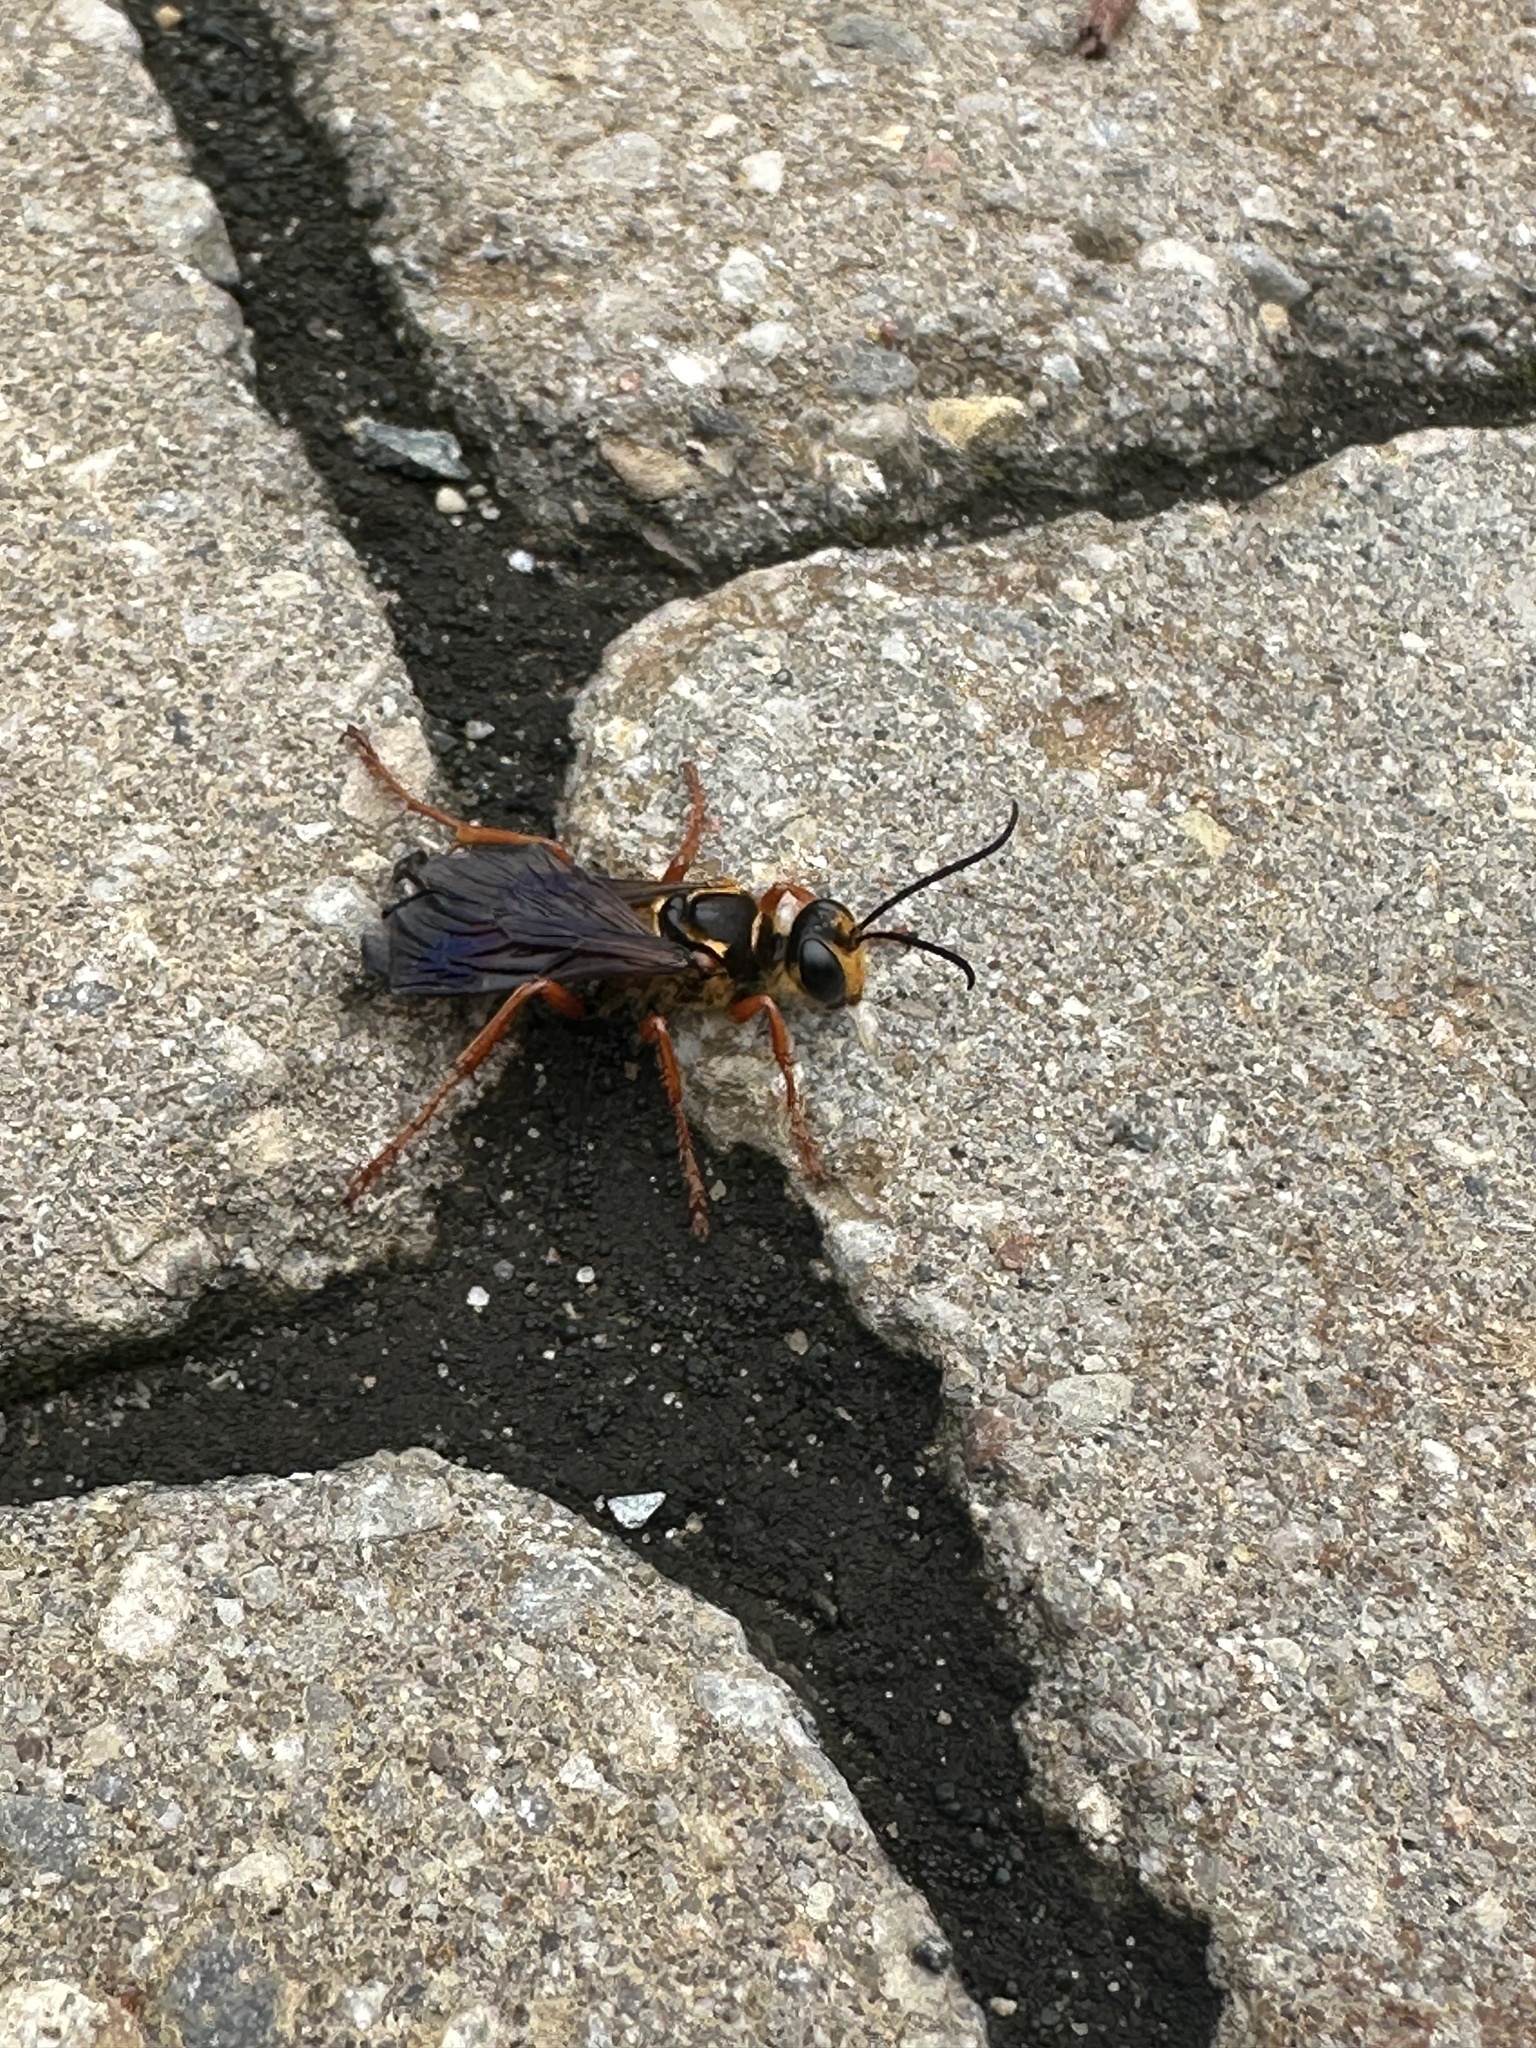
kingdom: Animalia
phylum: Arthropoda
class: Insecta
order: Hymenoptera
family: Sphecidae
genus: Sphex
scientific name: Sphex ichneumoneus
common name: Great golden digger wasp
